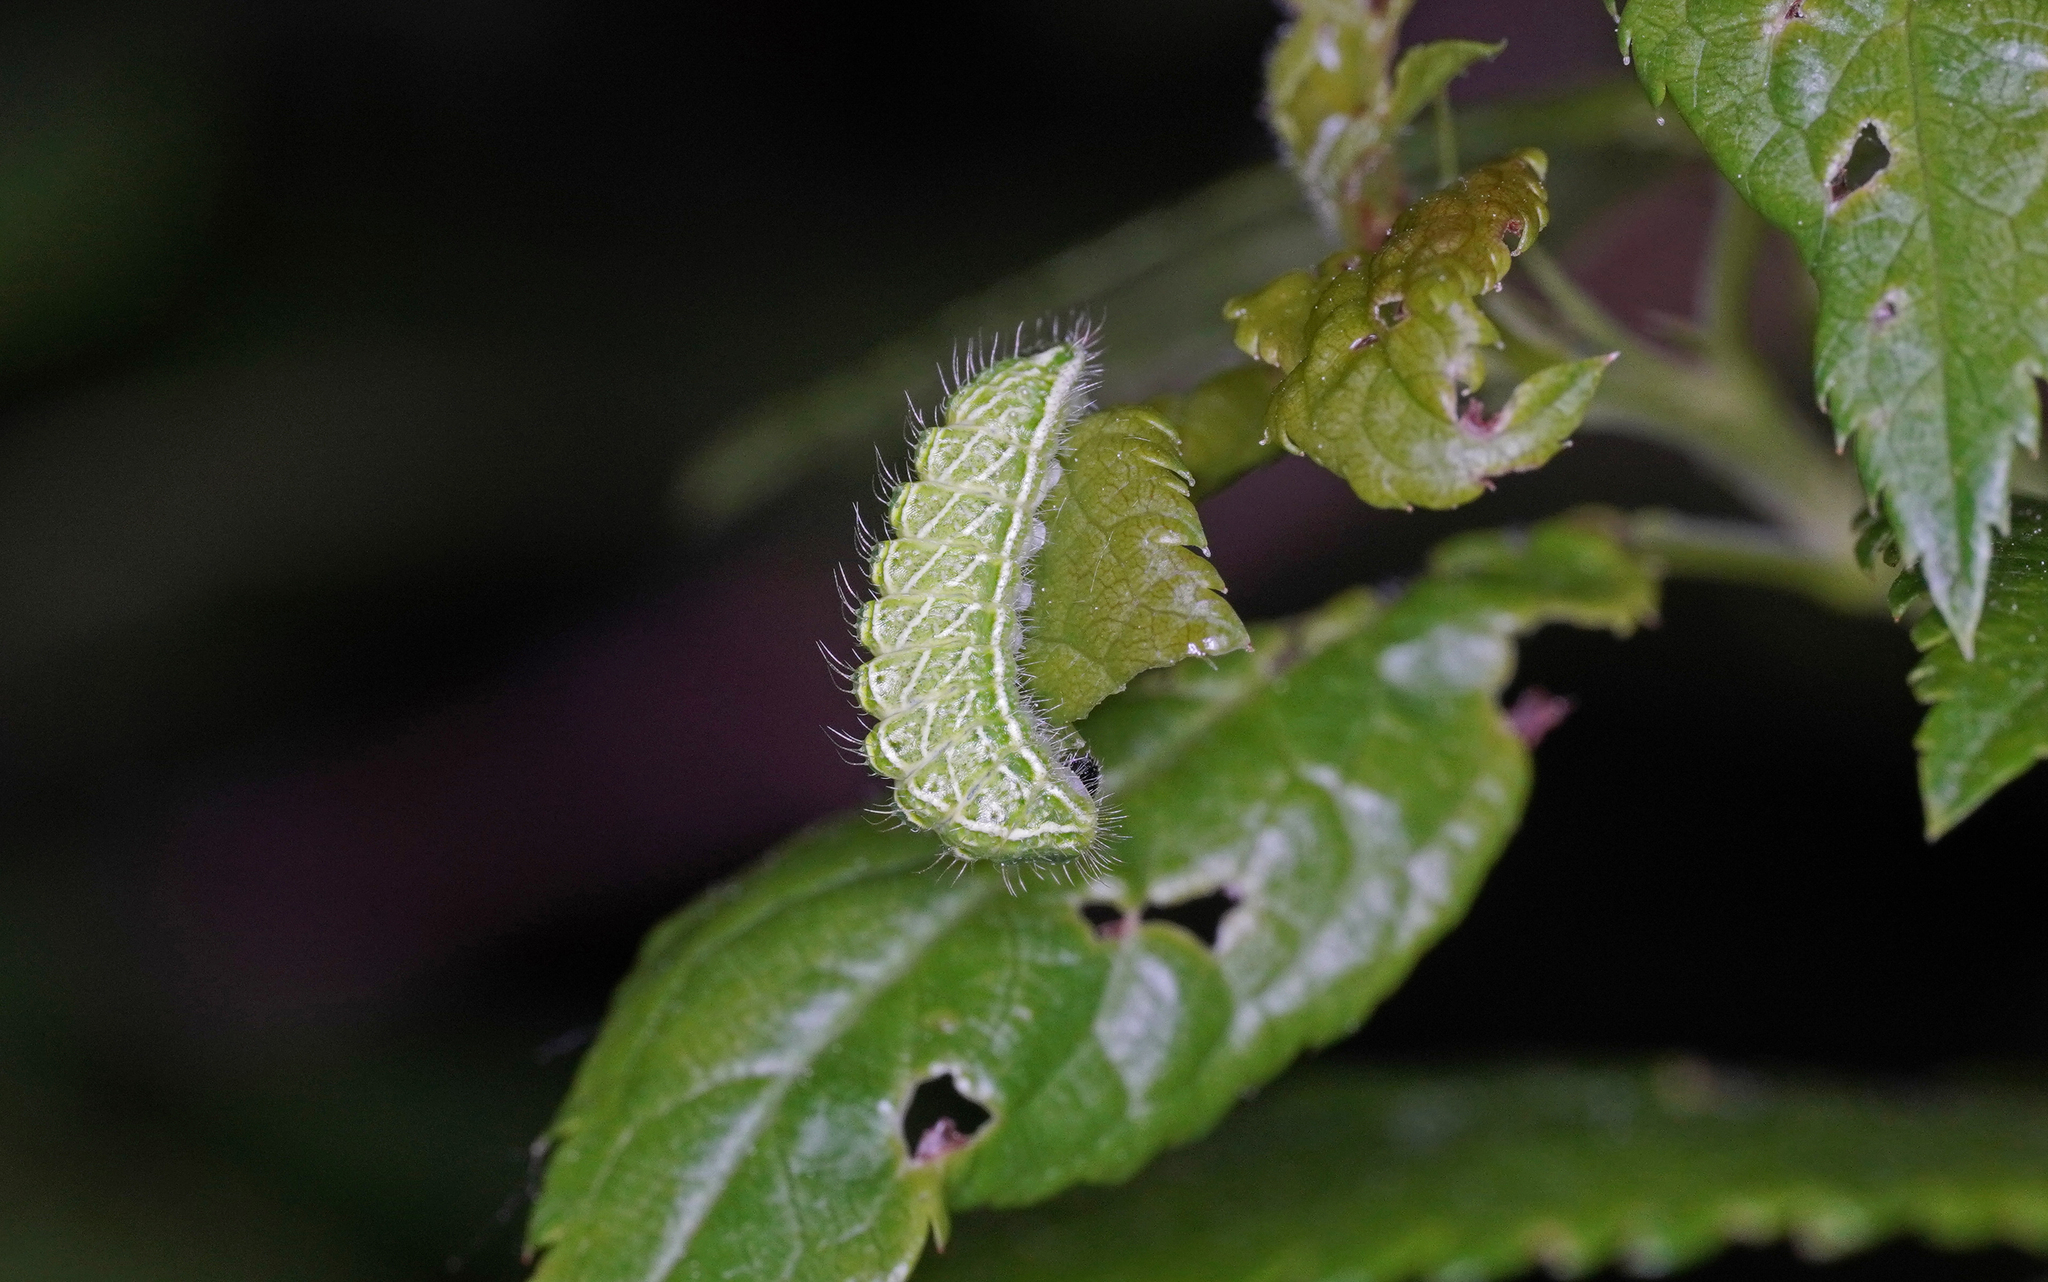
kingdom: Animalia
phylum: Arthropoda
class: Insecta
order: Lepidoptera
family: Lycaenidae
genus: Thecla
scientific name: Thecla betulae
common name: Brown hairstreak
